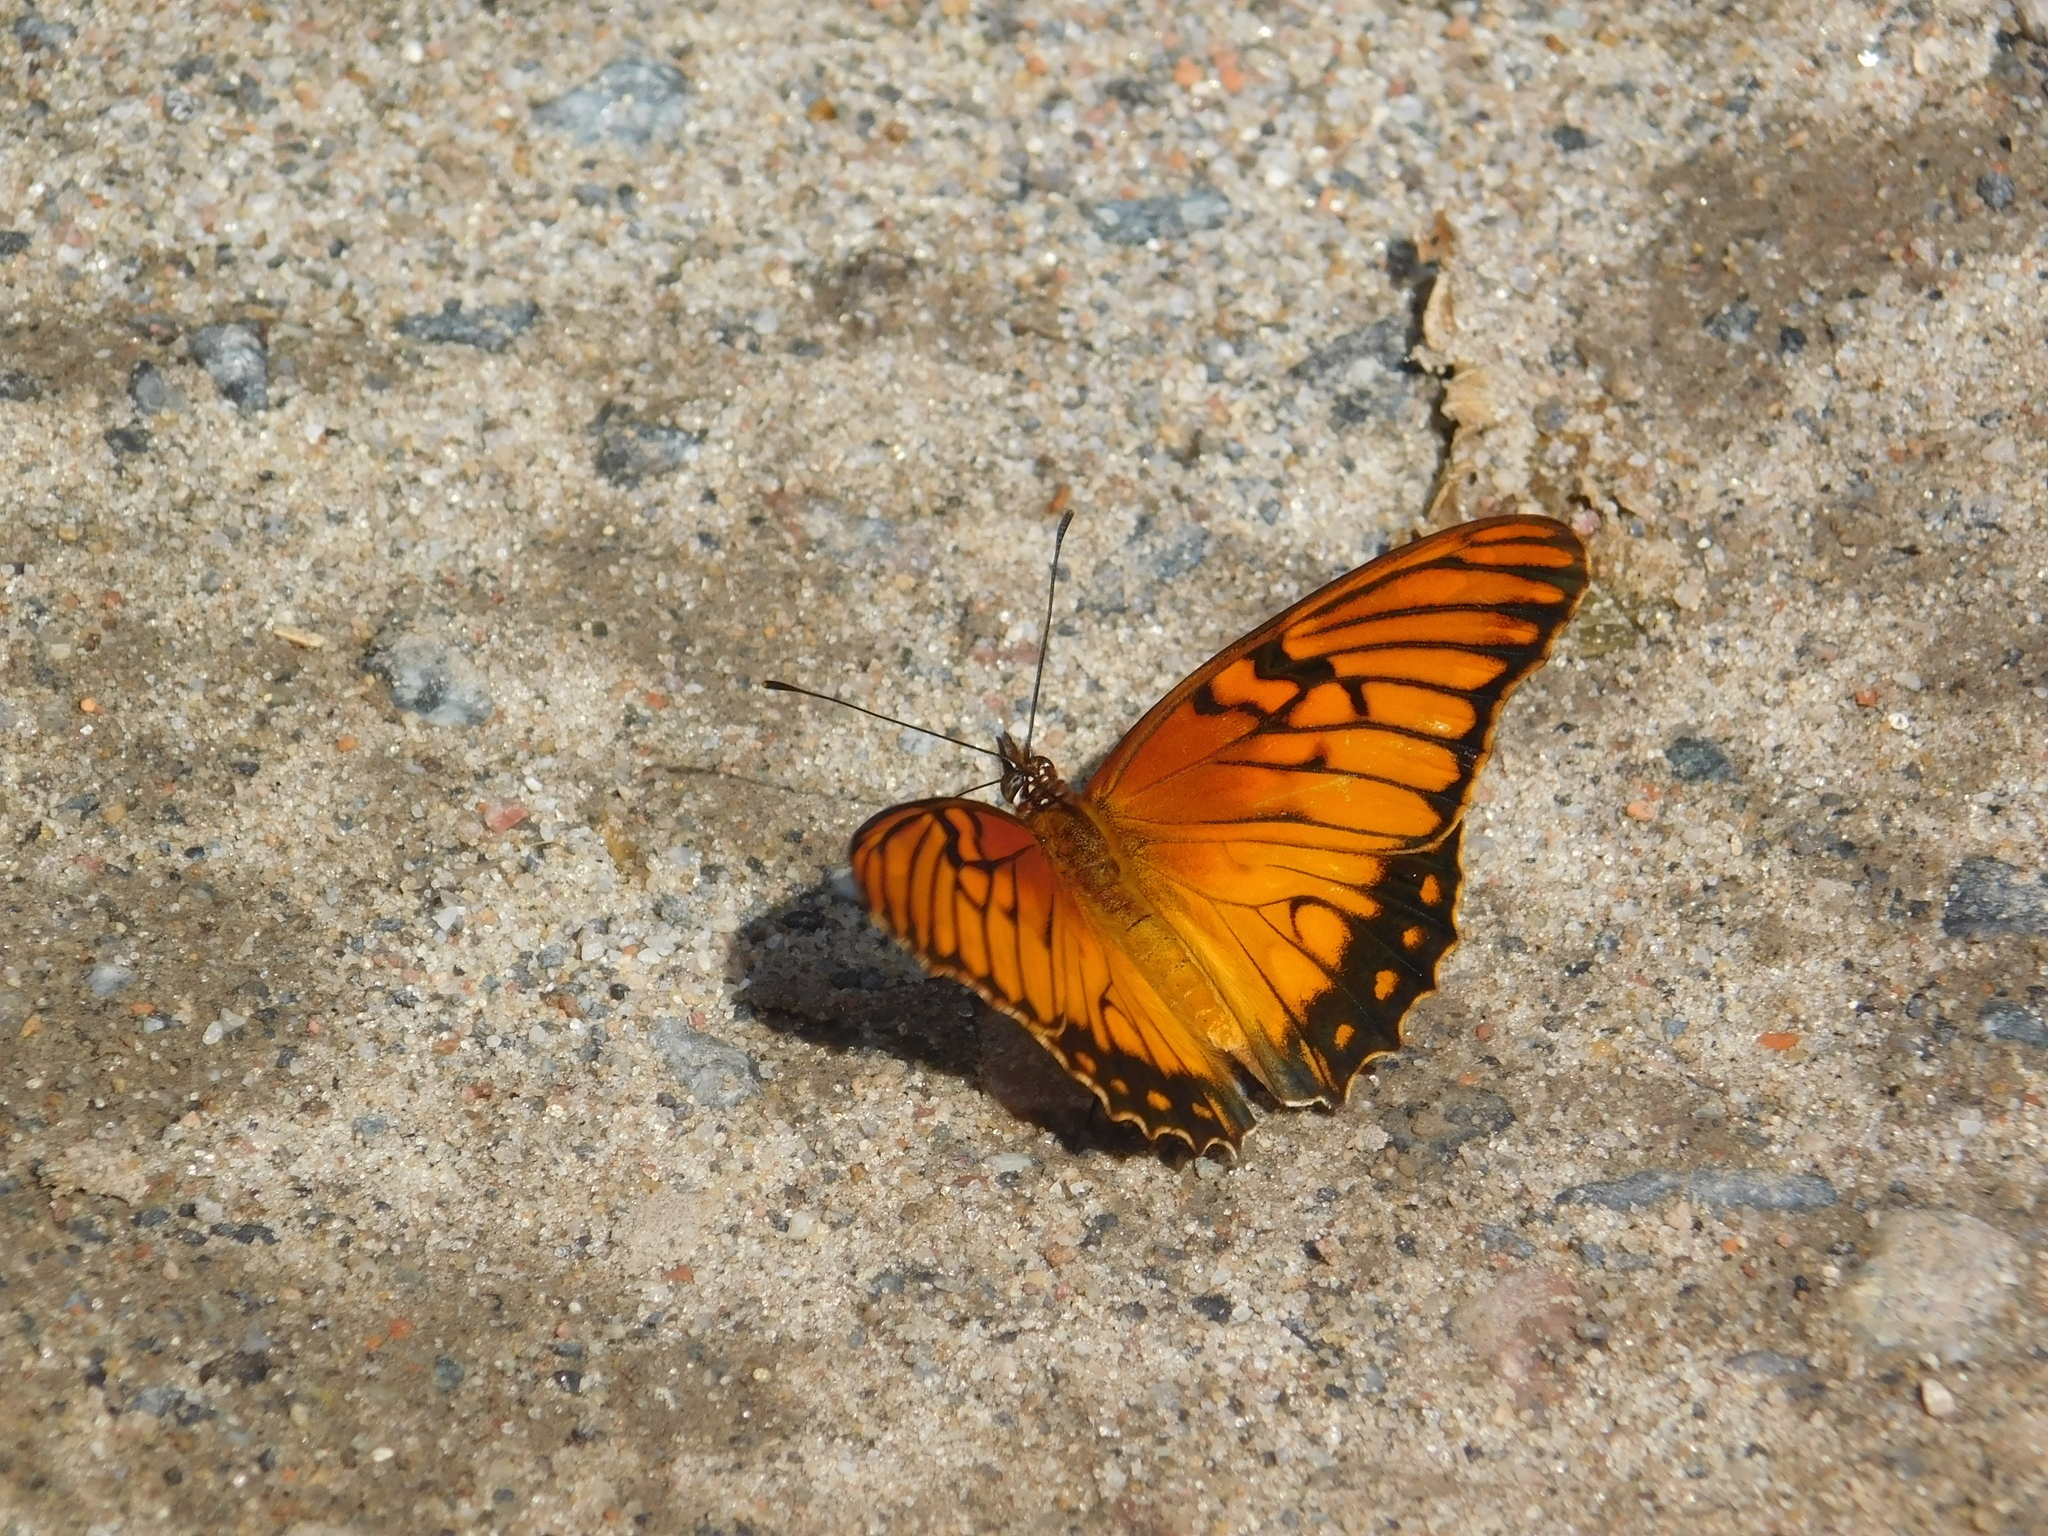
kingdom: Animalia
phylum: Arthropoda
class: Insecta
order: Lepidoptera
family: Nymphalidae
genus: Dione
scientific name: Dione moneta
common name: Mexican silverspot
